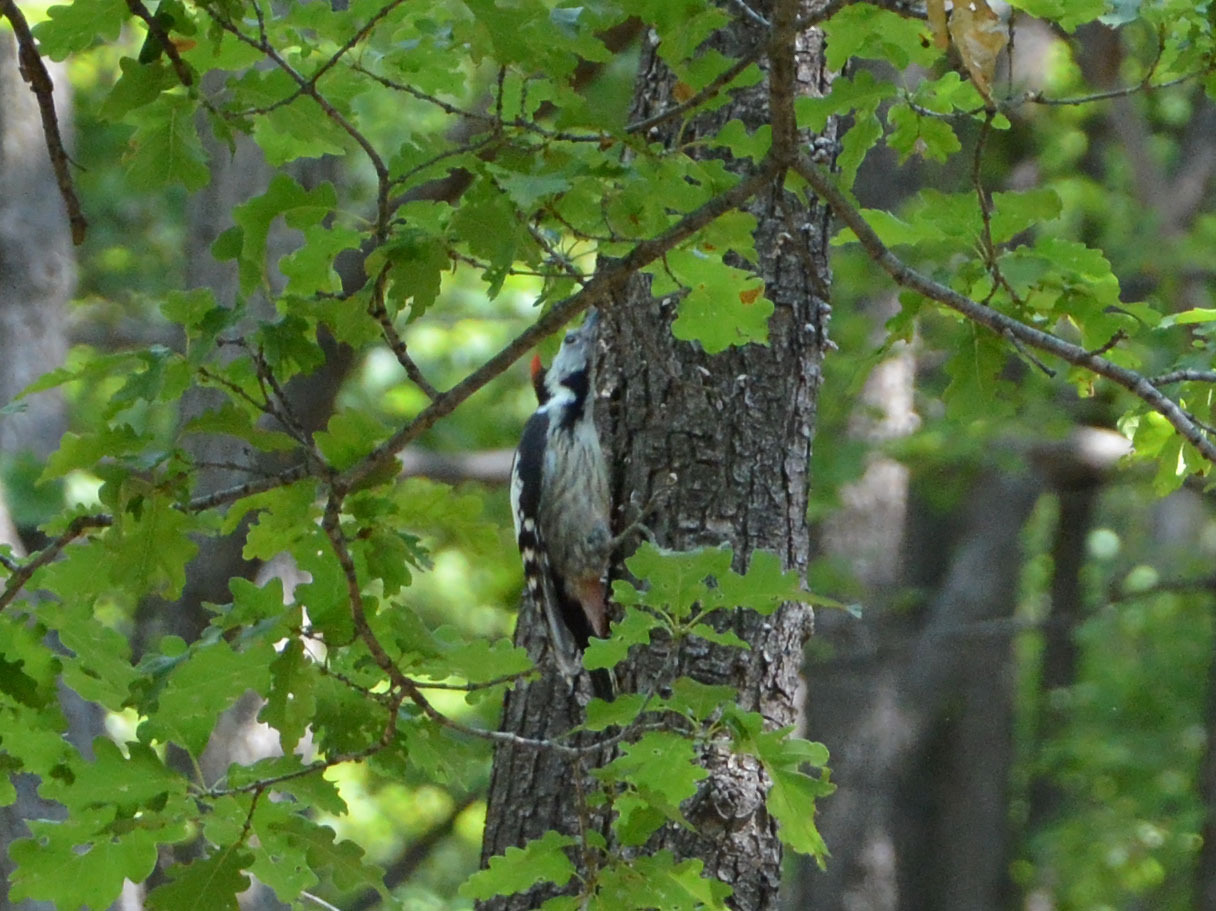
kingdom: Animalia
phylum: Chordata
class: Aves
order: Piciformes
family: Picidae
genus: Dendrocoptes
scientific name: Dendrocoptes medius
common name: Middle spotted woodpecker
